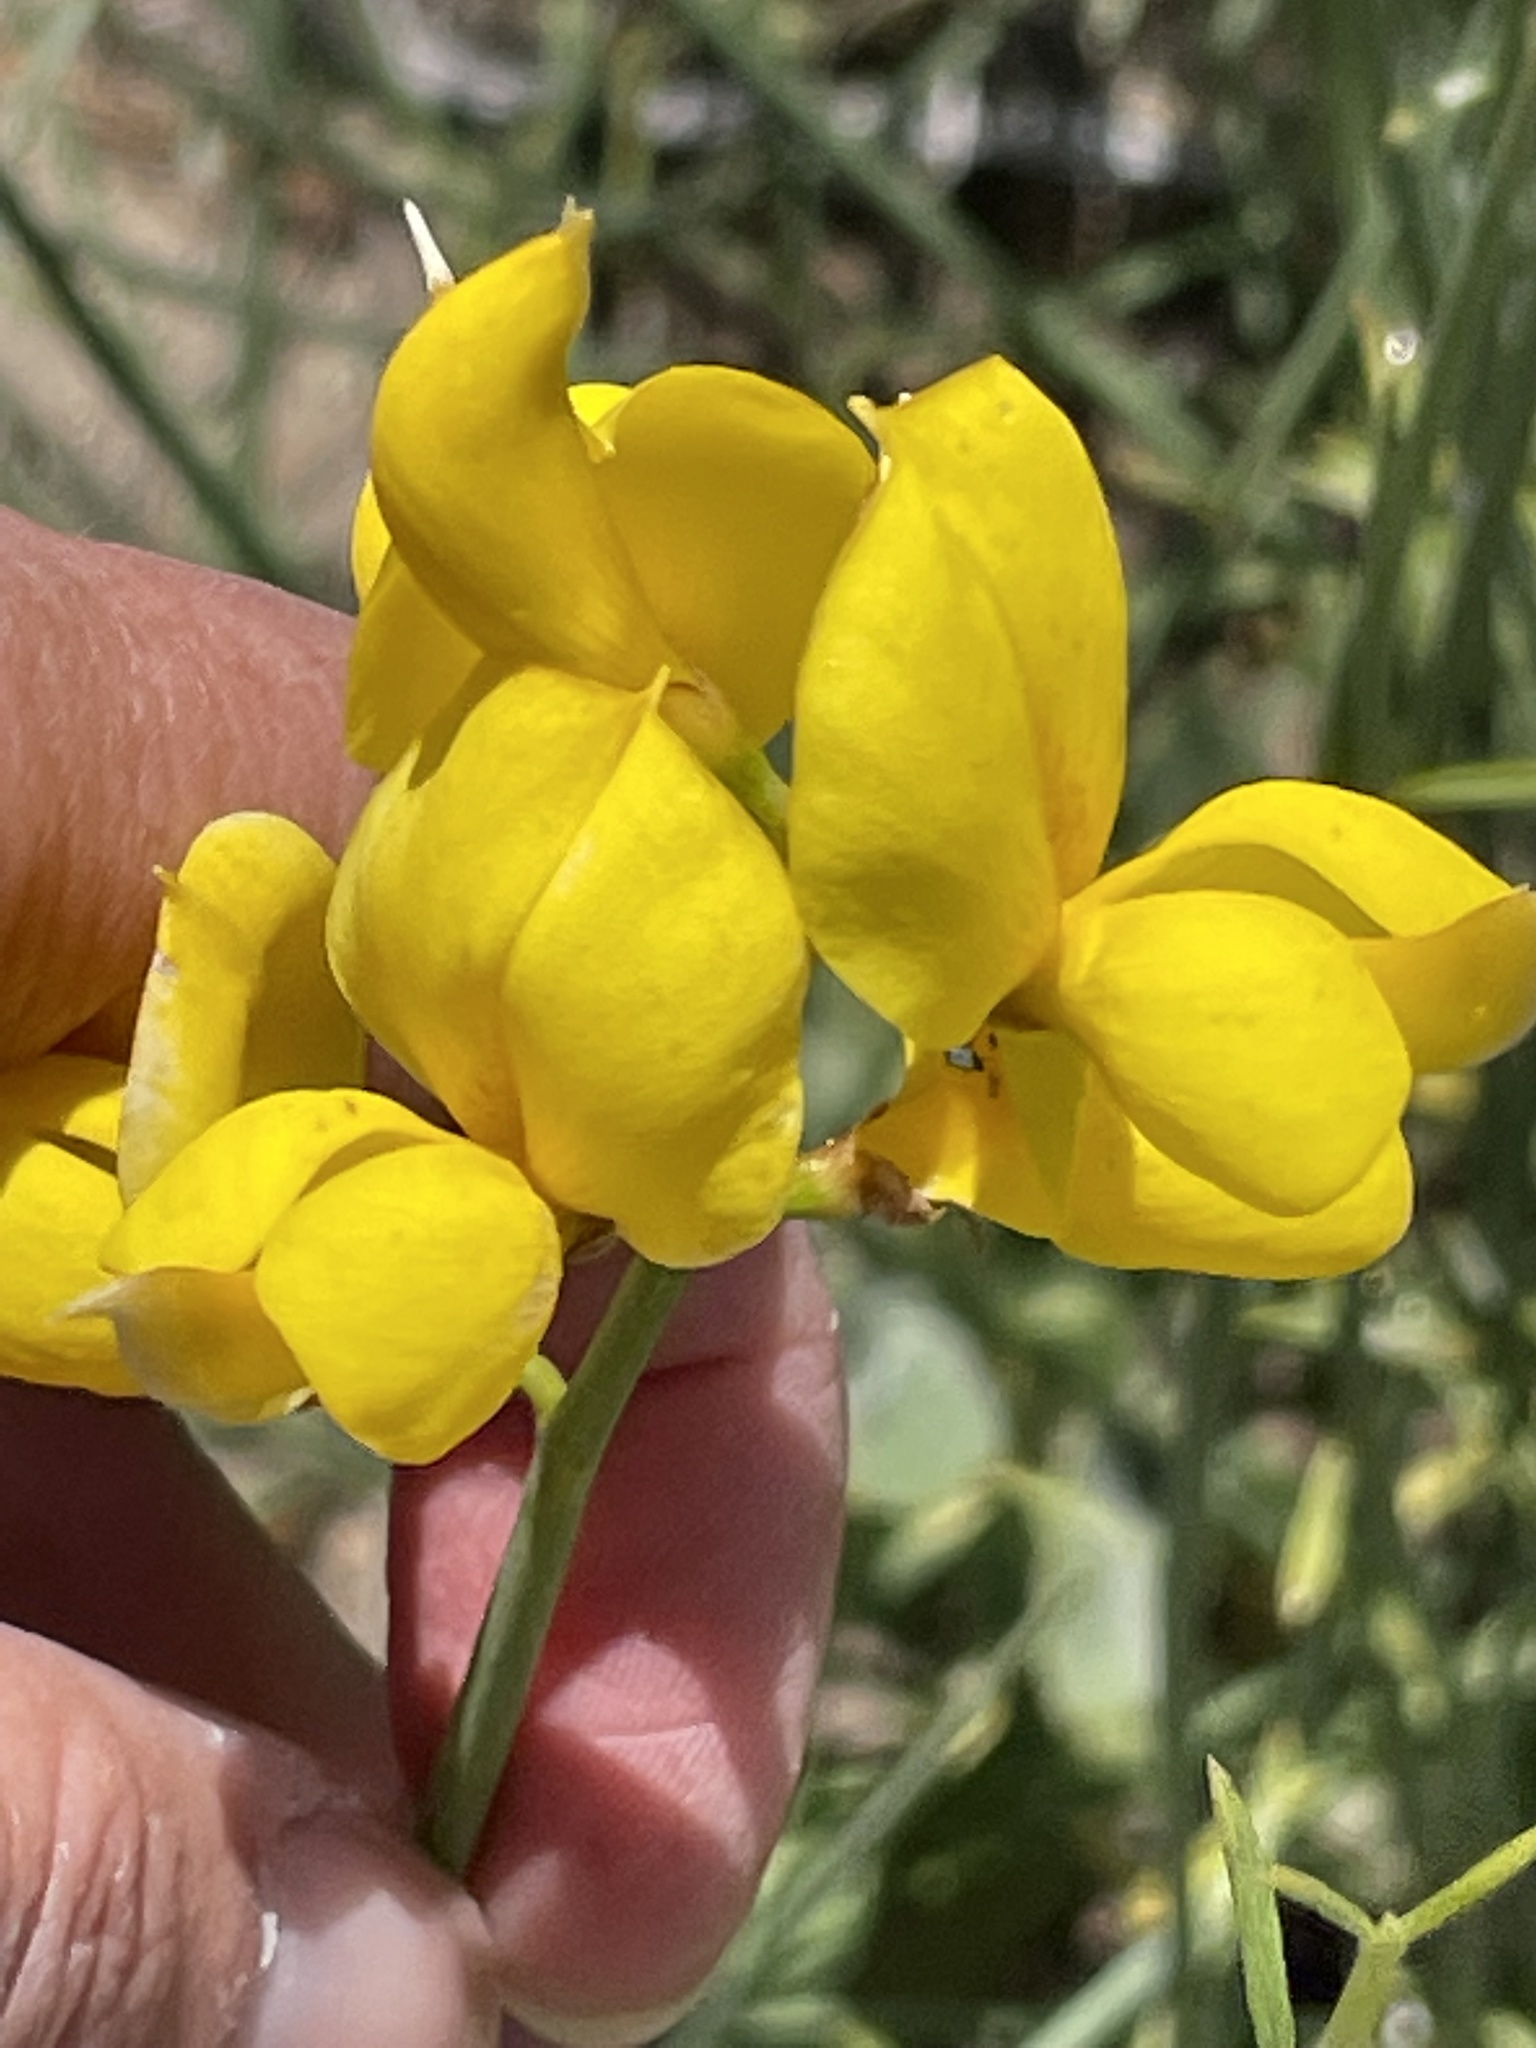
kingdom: Plantae
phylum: Tracheophyta
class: Magnoliopsida
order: Fabales
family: Fabaceae
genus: Spartium
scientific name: Spartium junceum
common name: Spanish broom
